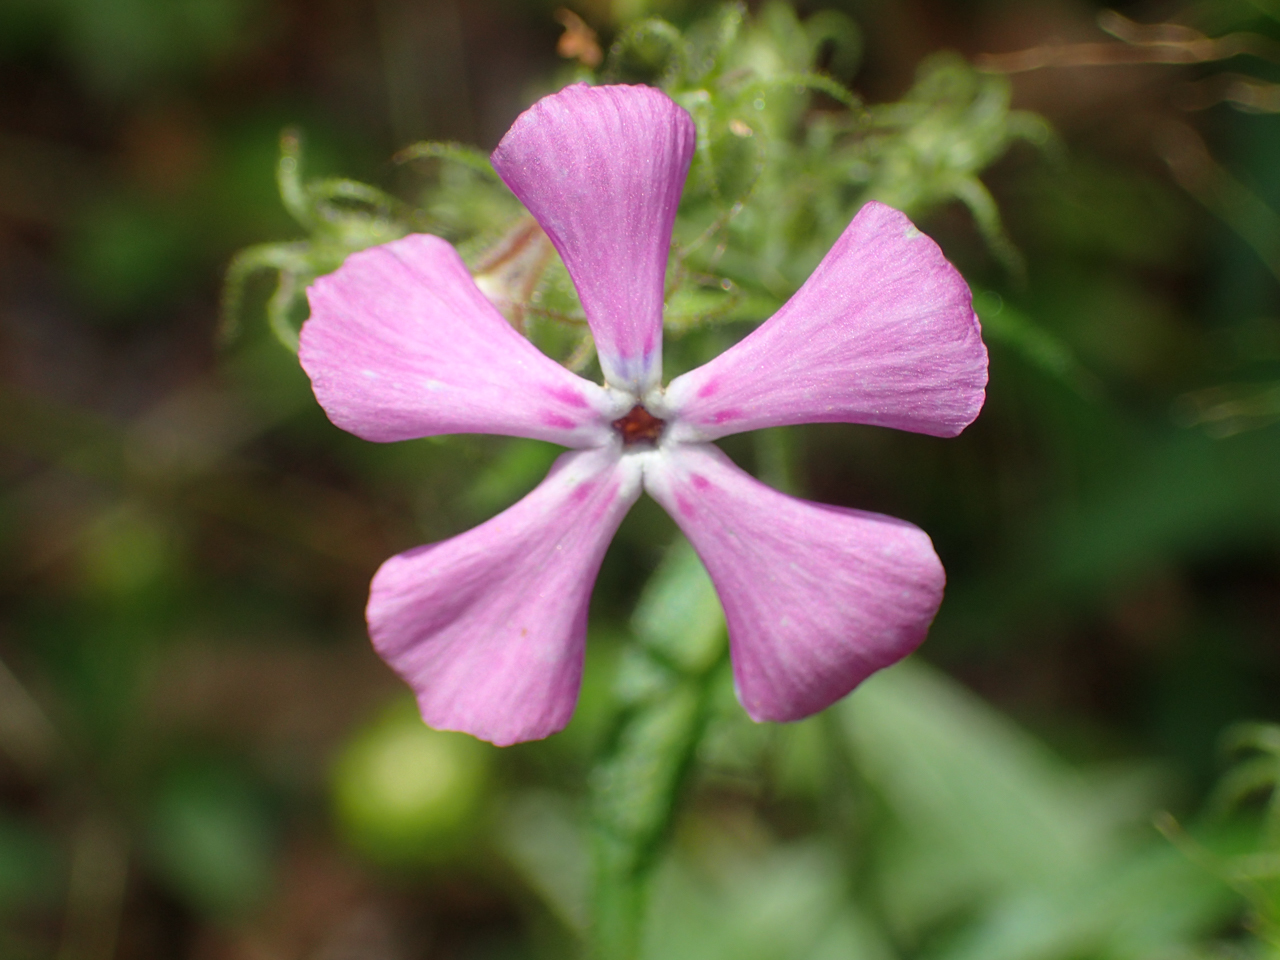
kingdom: Plantae
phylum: Tracheophyta
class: Magnoliopsida
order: Ericales
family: Polemoniaceae
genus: Phlox
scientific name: Phlox pilosa
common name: Prairie phlox
